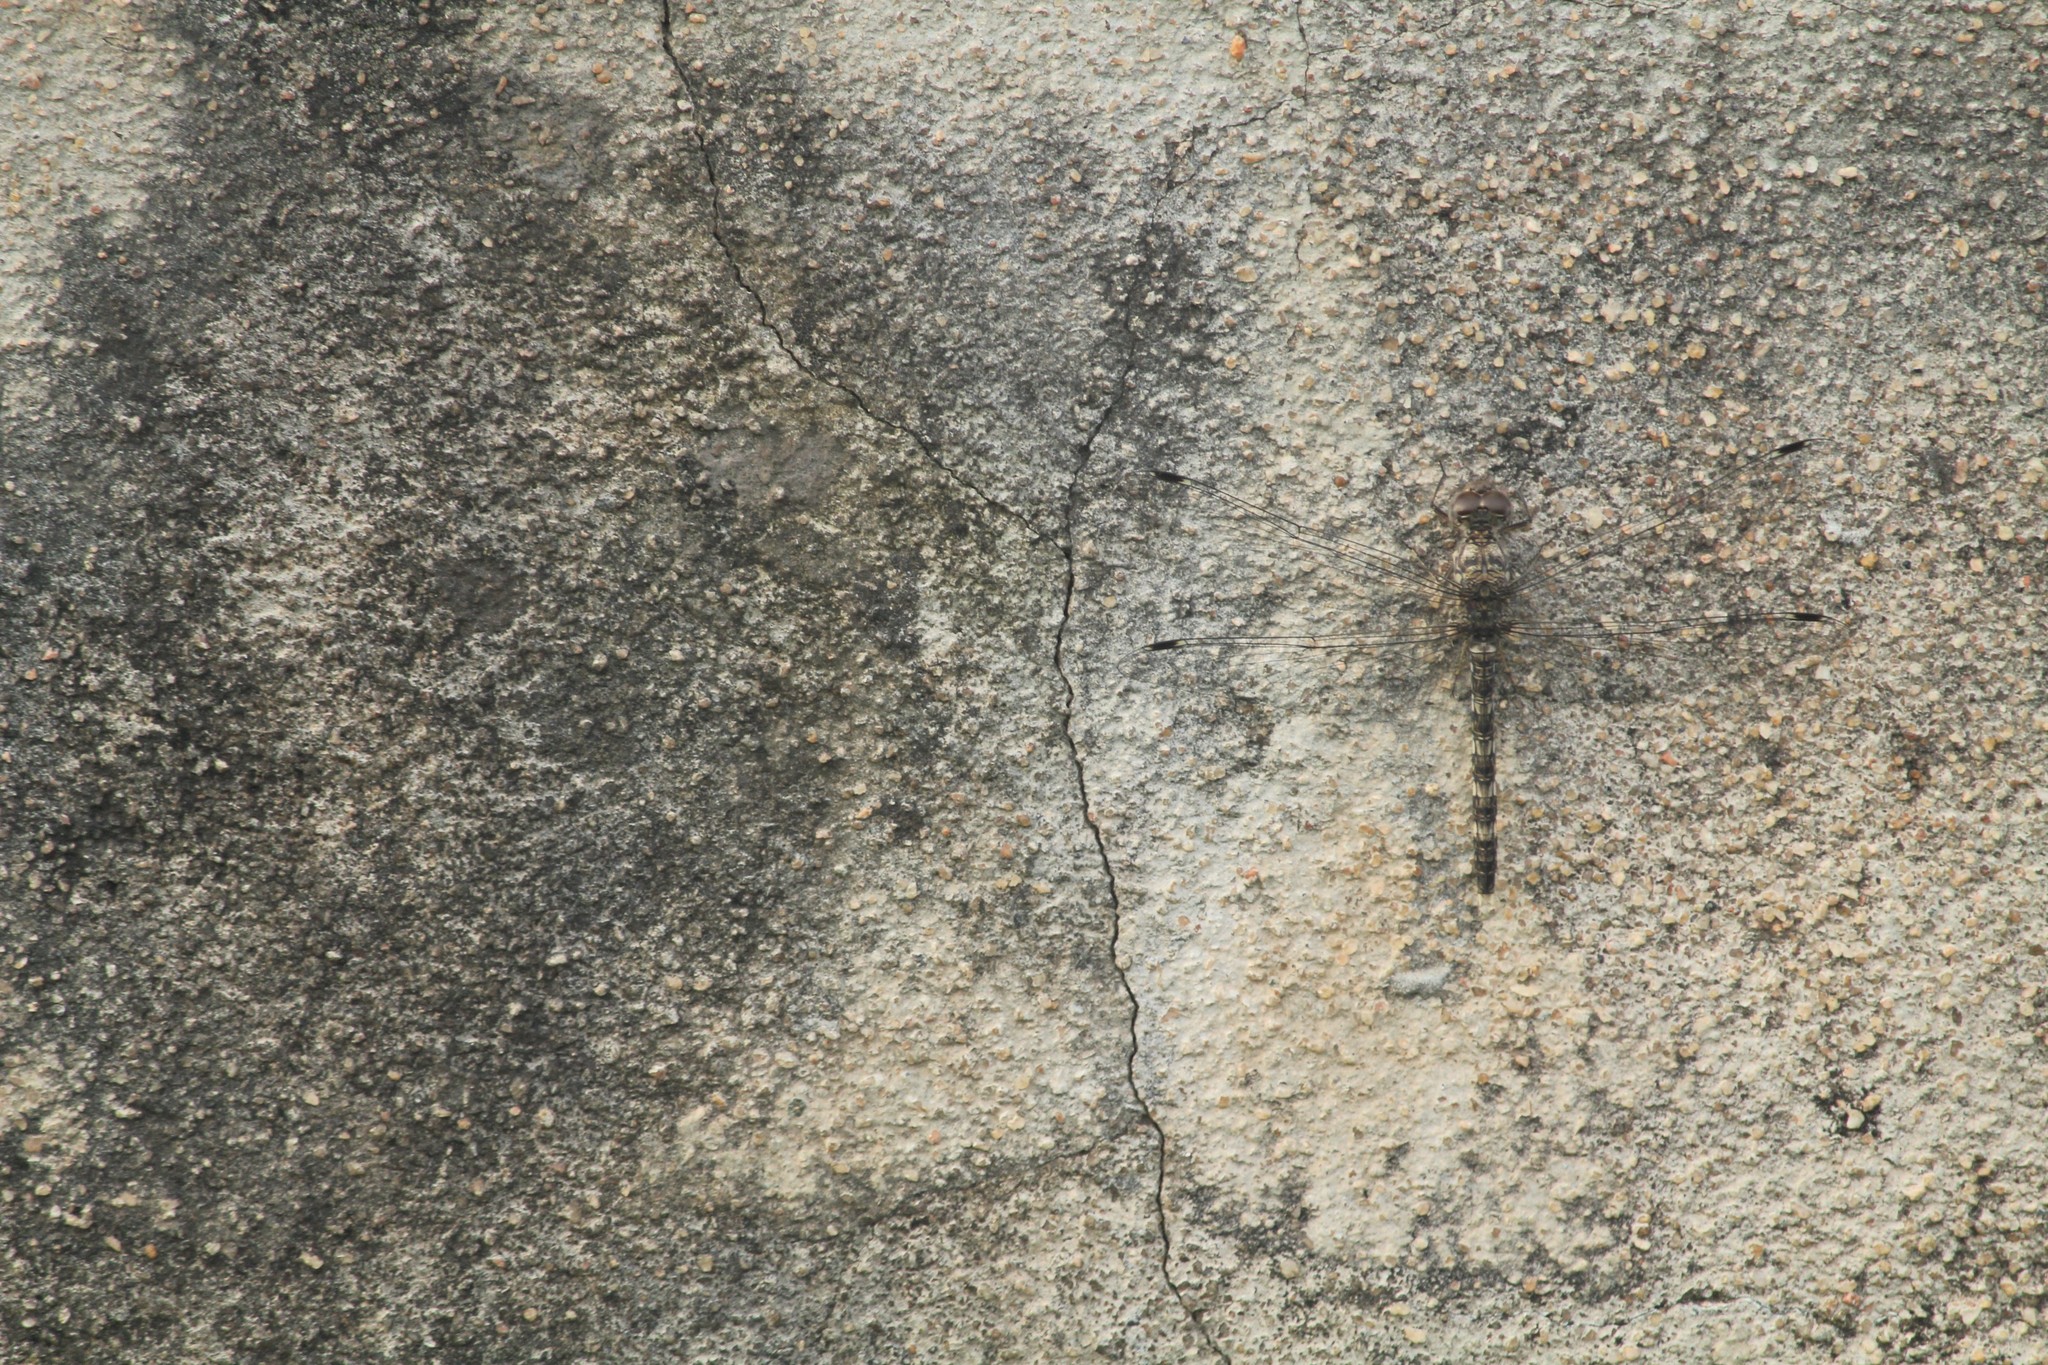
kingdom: Animalia
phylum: Arthropoda
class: Insecta
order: Odonata
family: Libellulidae
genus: Bradinopyga
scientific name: Bradinopyga geminata
